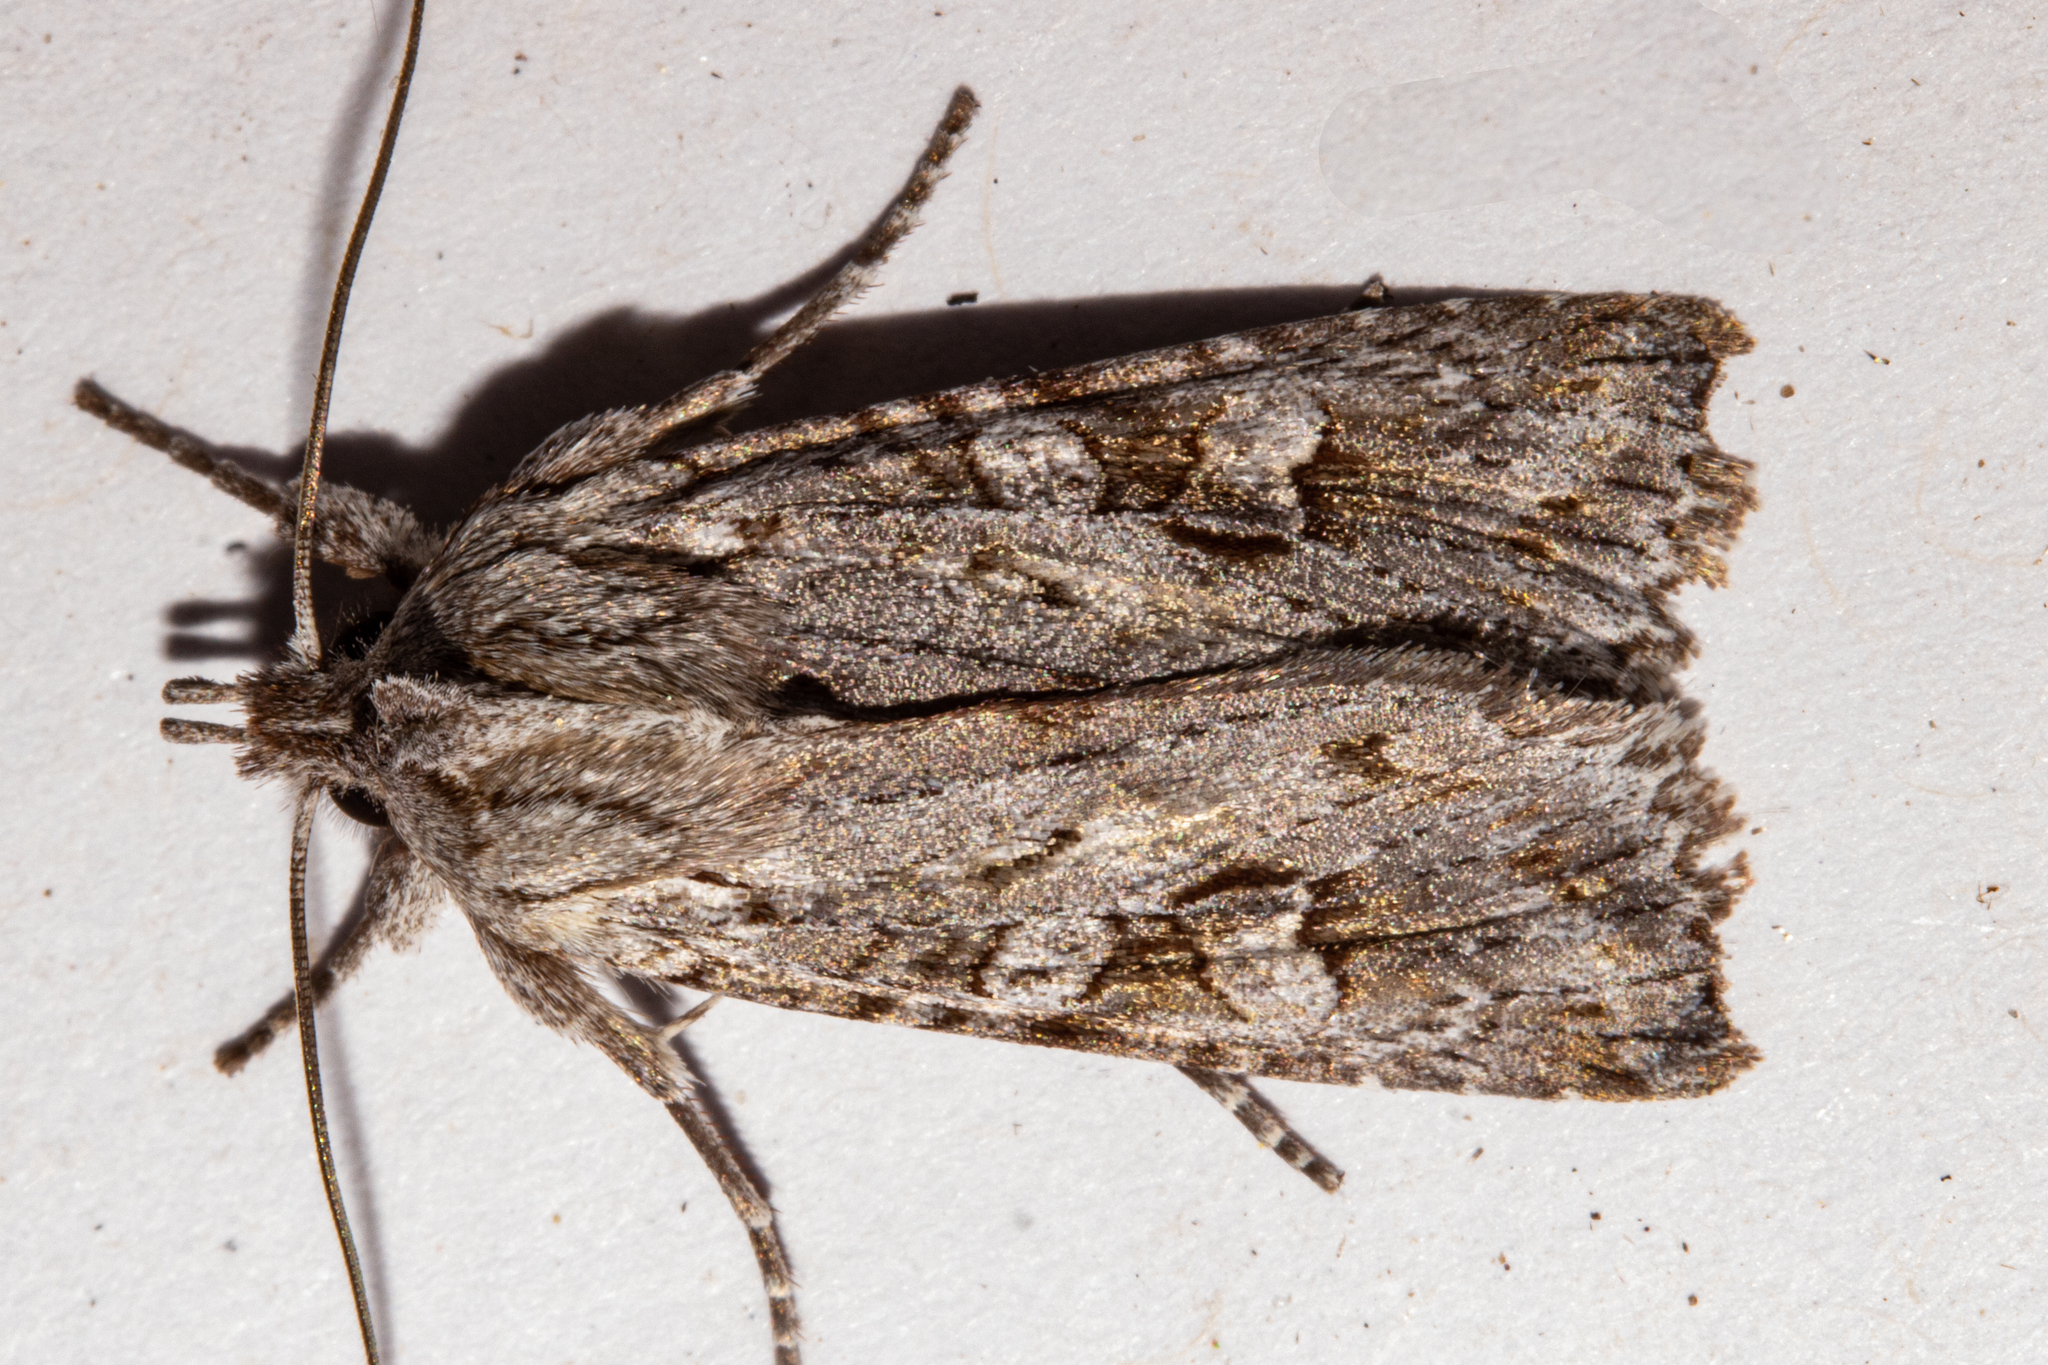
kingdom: Animalia
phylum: Arthropoda
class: Insecta
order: Lepidoptera
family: Noctuidae
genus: Physetica
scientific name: Physetica longstaffii
